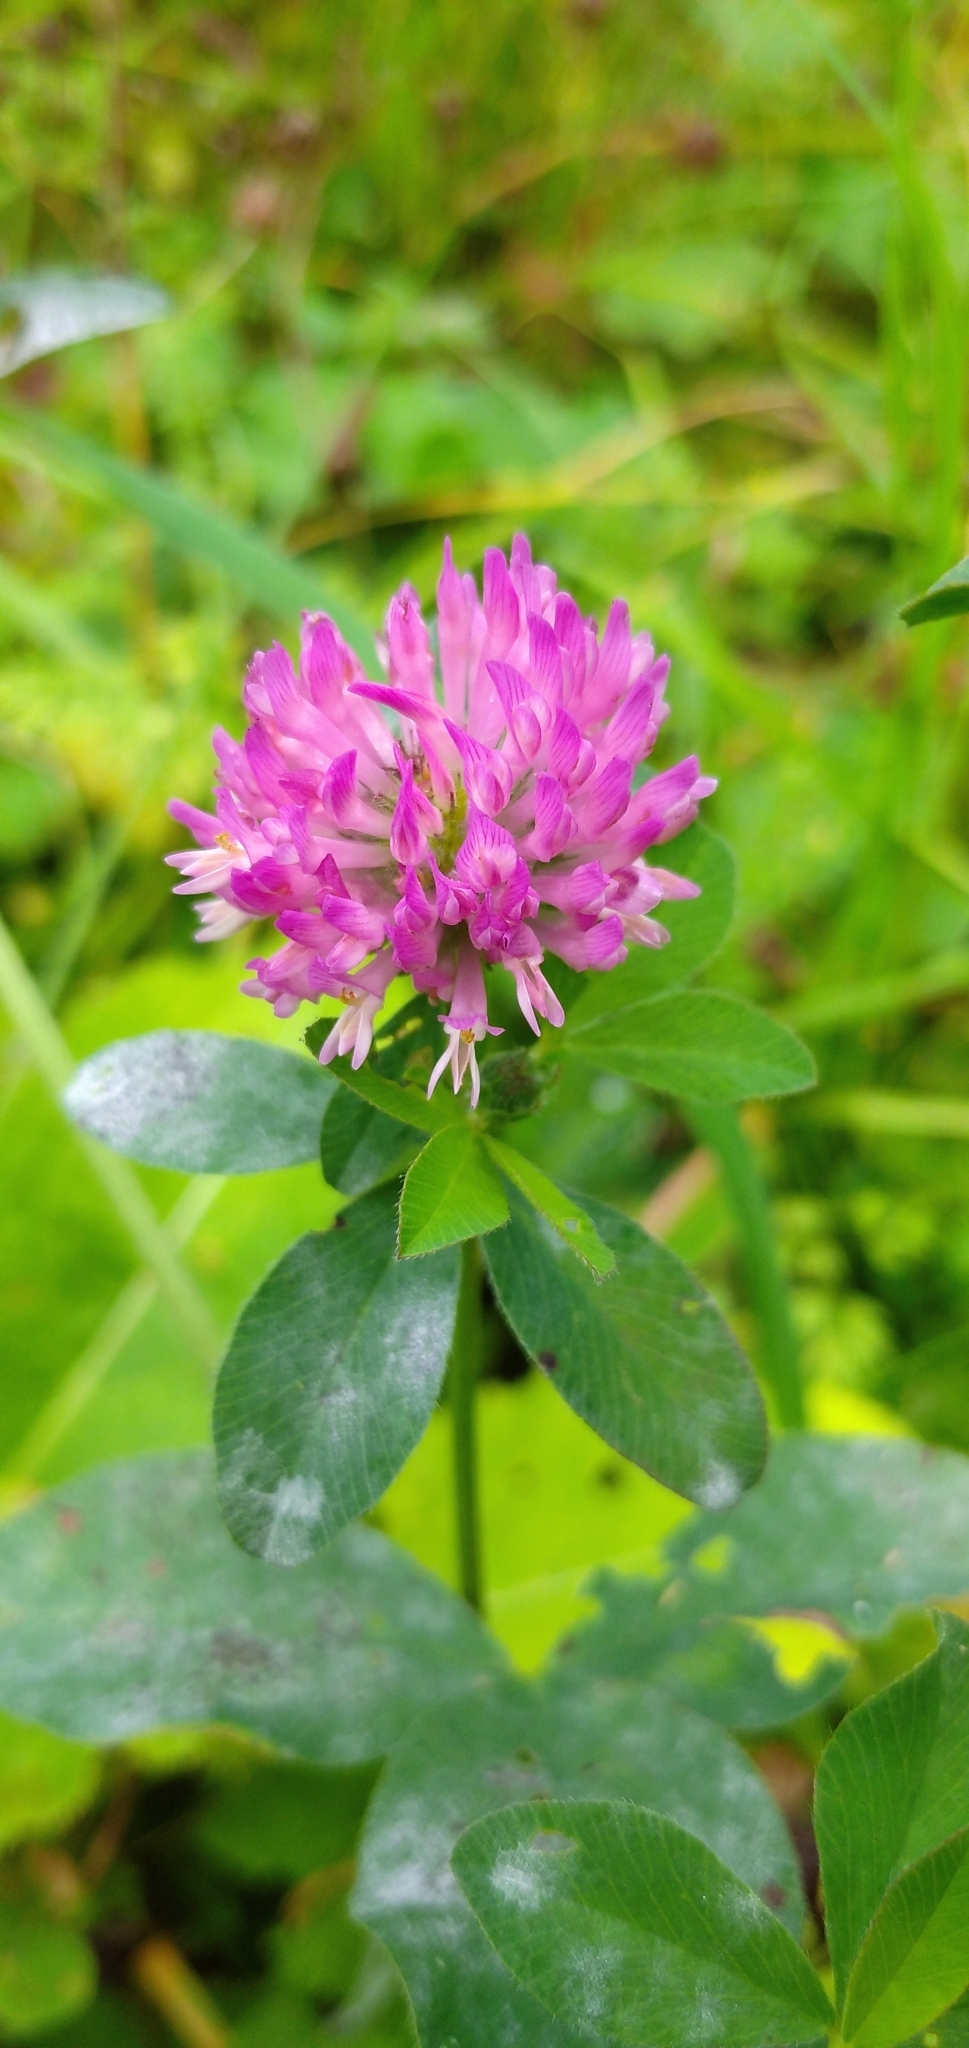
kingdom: Plantae
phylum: Tracheophyta
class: Magnoliopsida
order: Fabales
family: Fabaceae
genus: Trifolium
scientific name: Trifolium pratense
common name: Red clover
